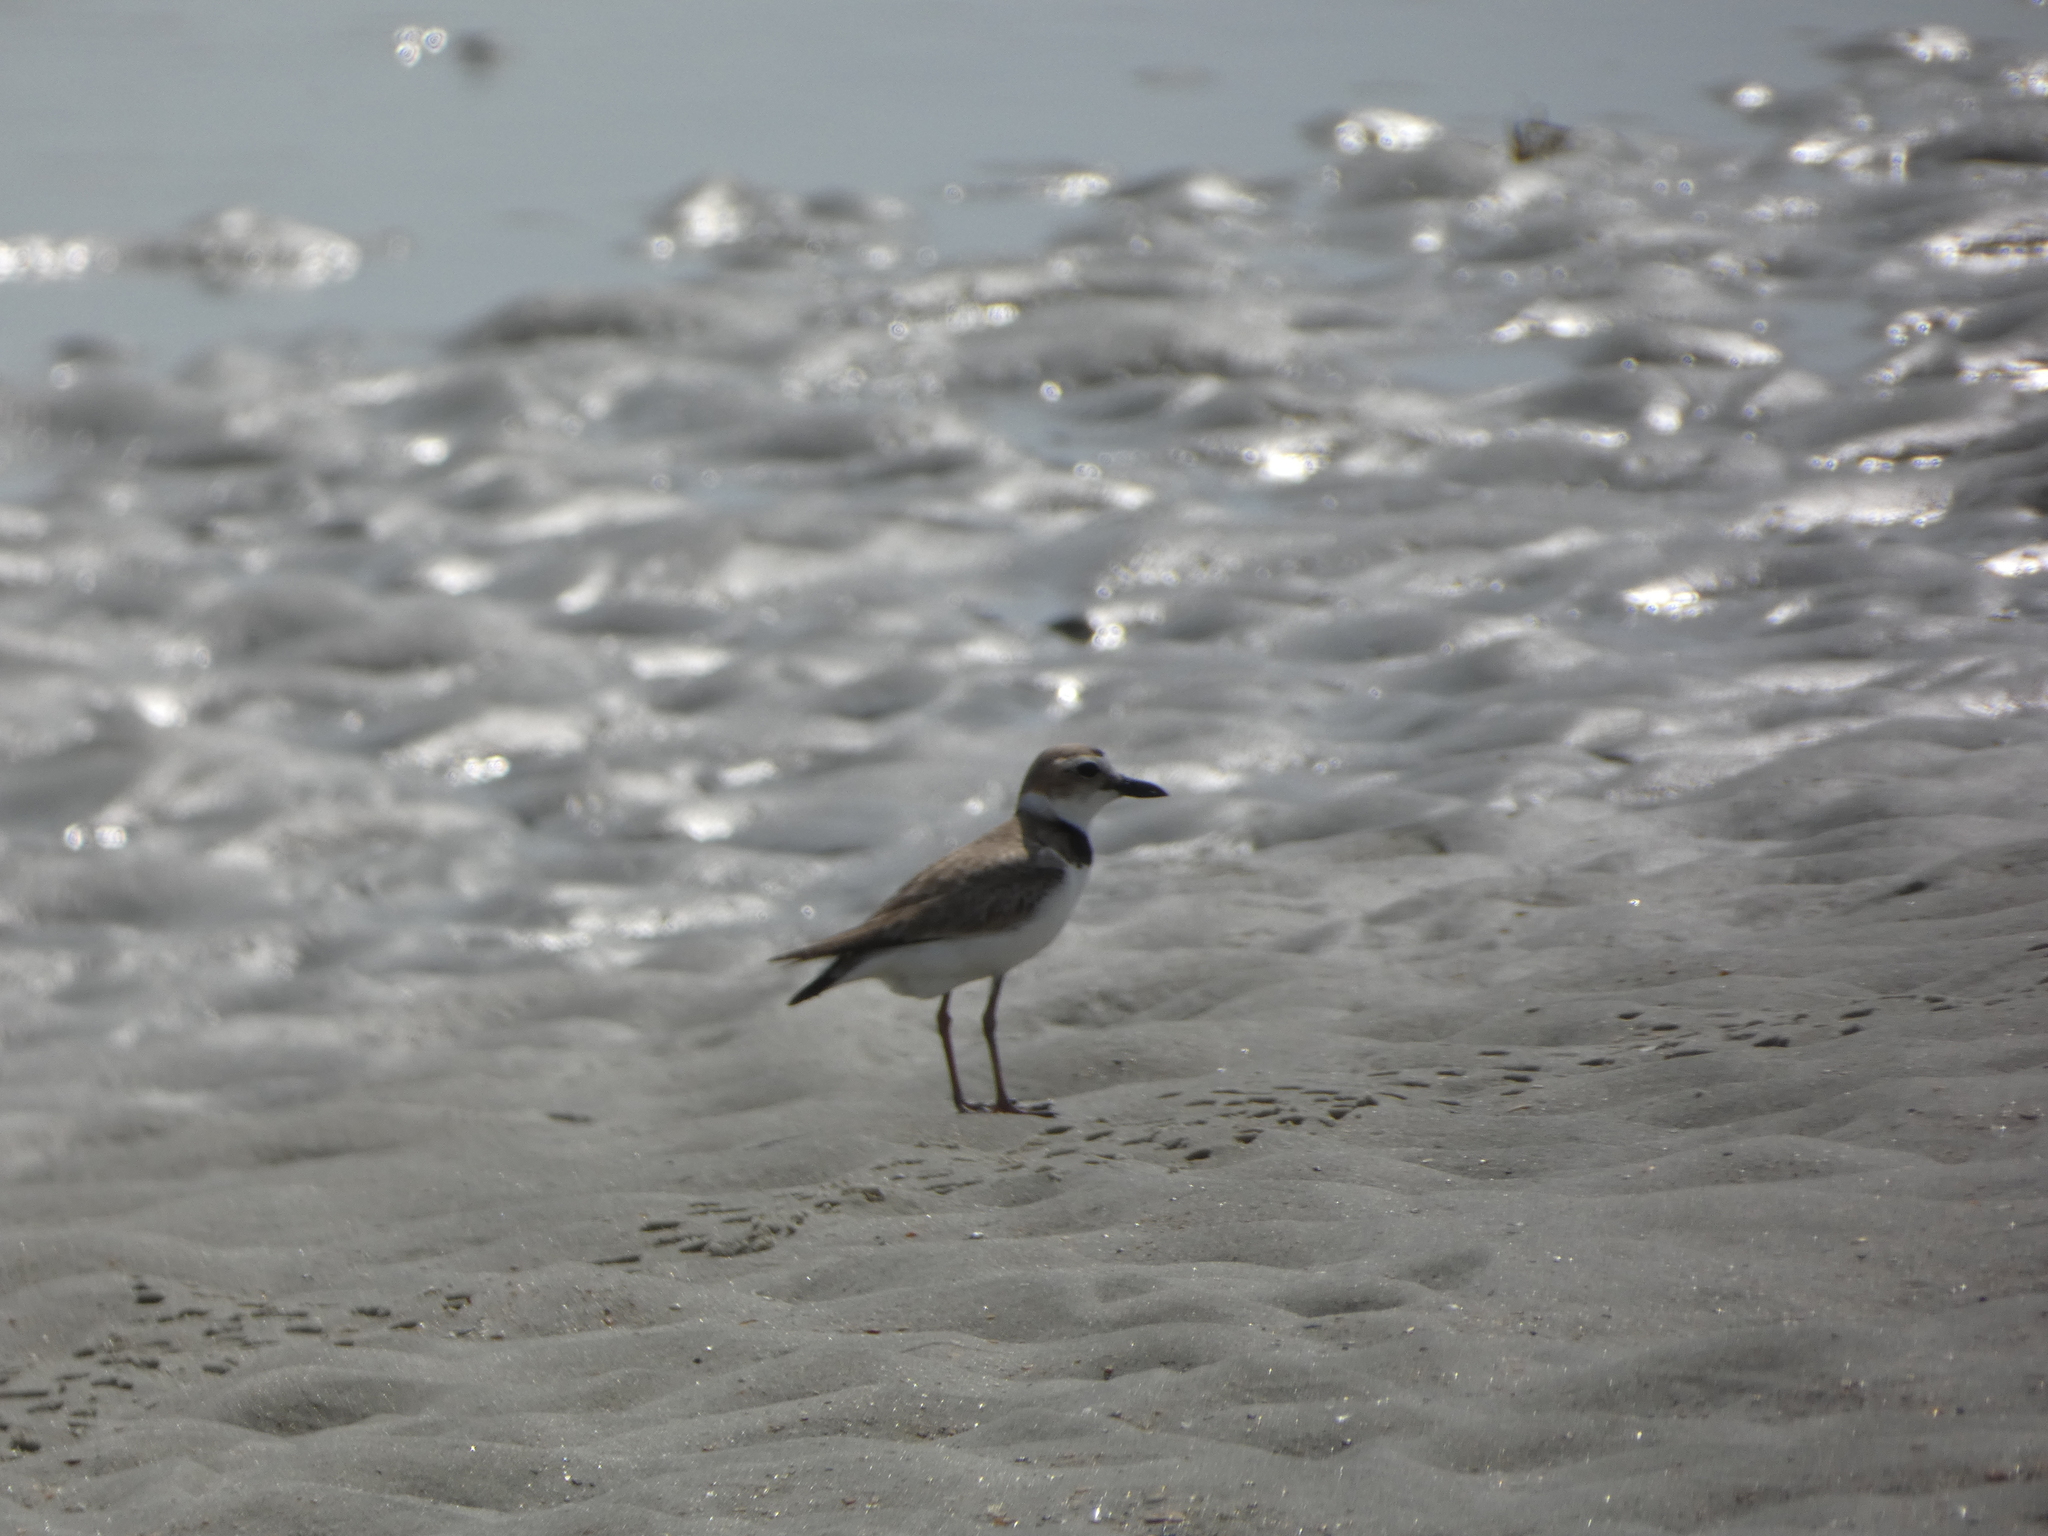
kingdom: Animalia
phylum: Chordata
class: Aves
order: Charadriiformes
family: Charadriidae
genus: Anarhynchus
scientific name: Anarhynchus
